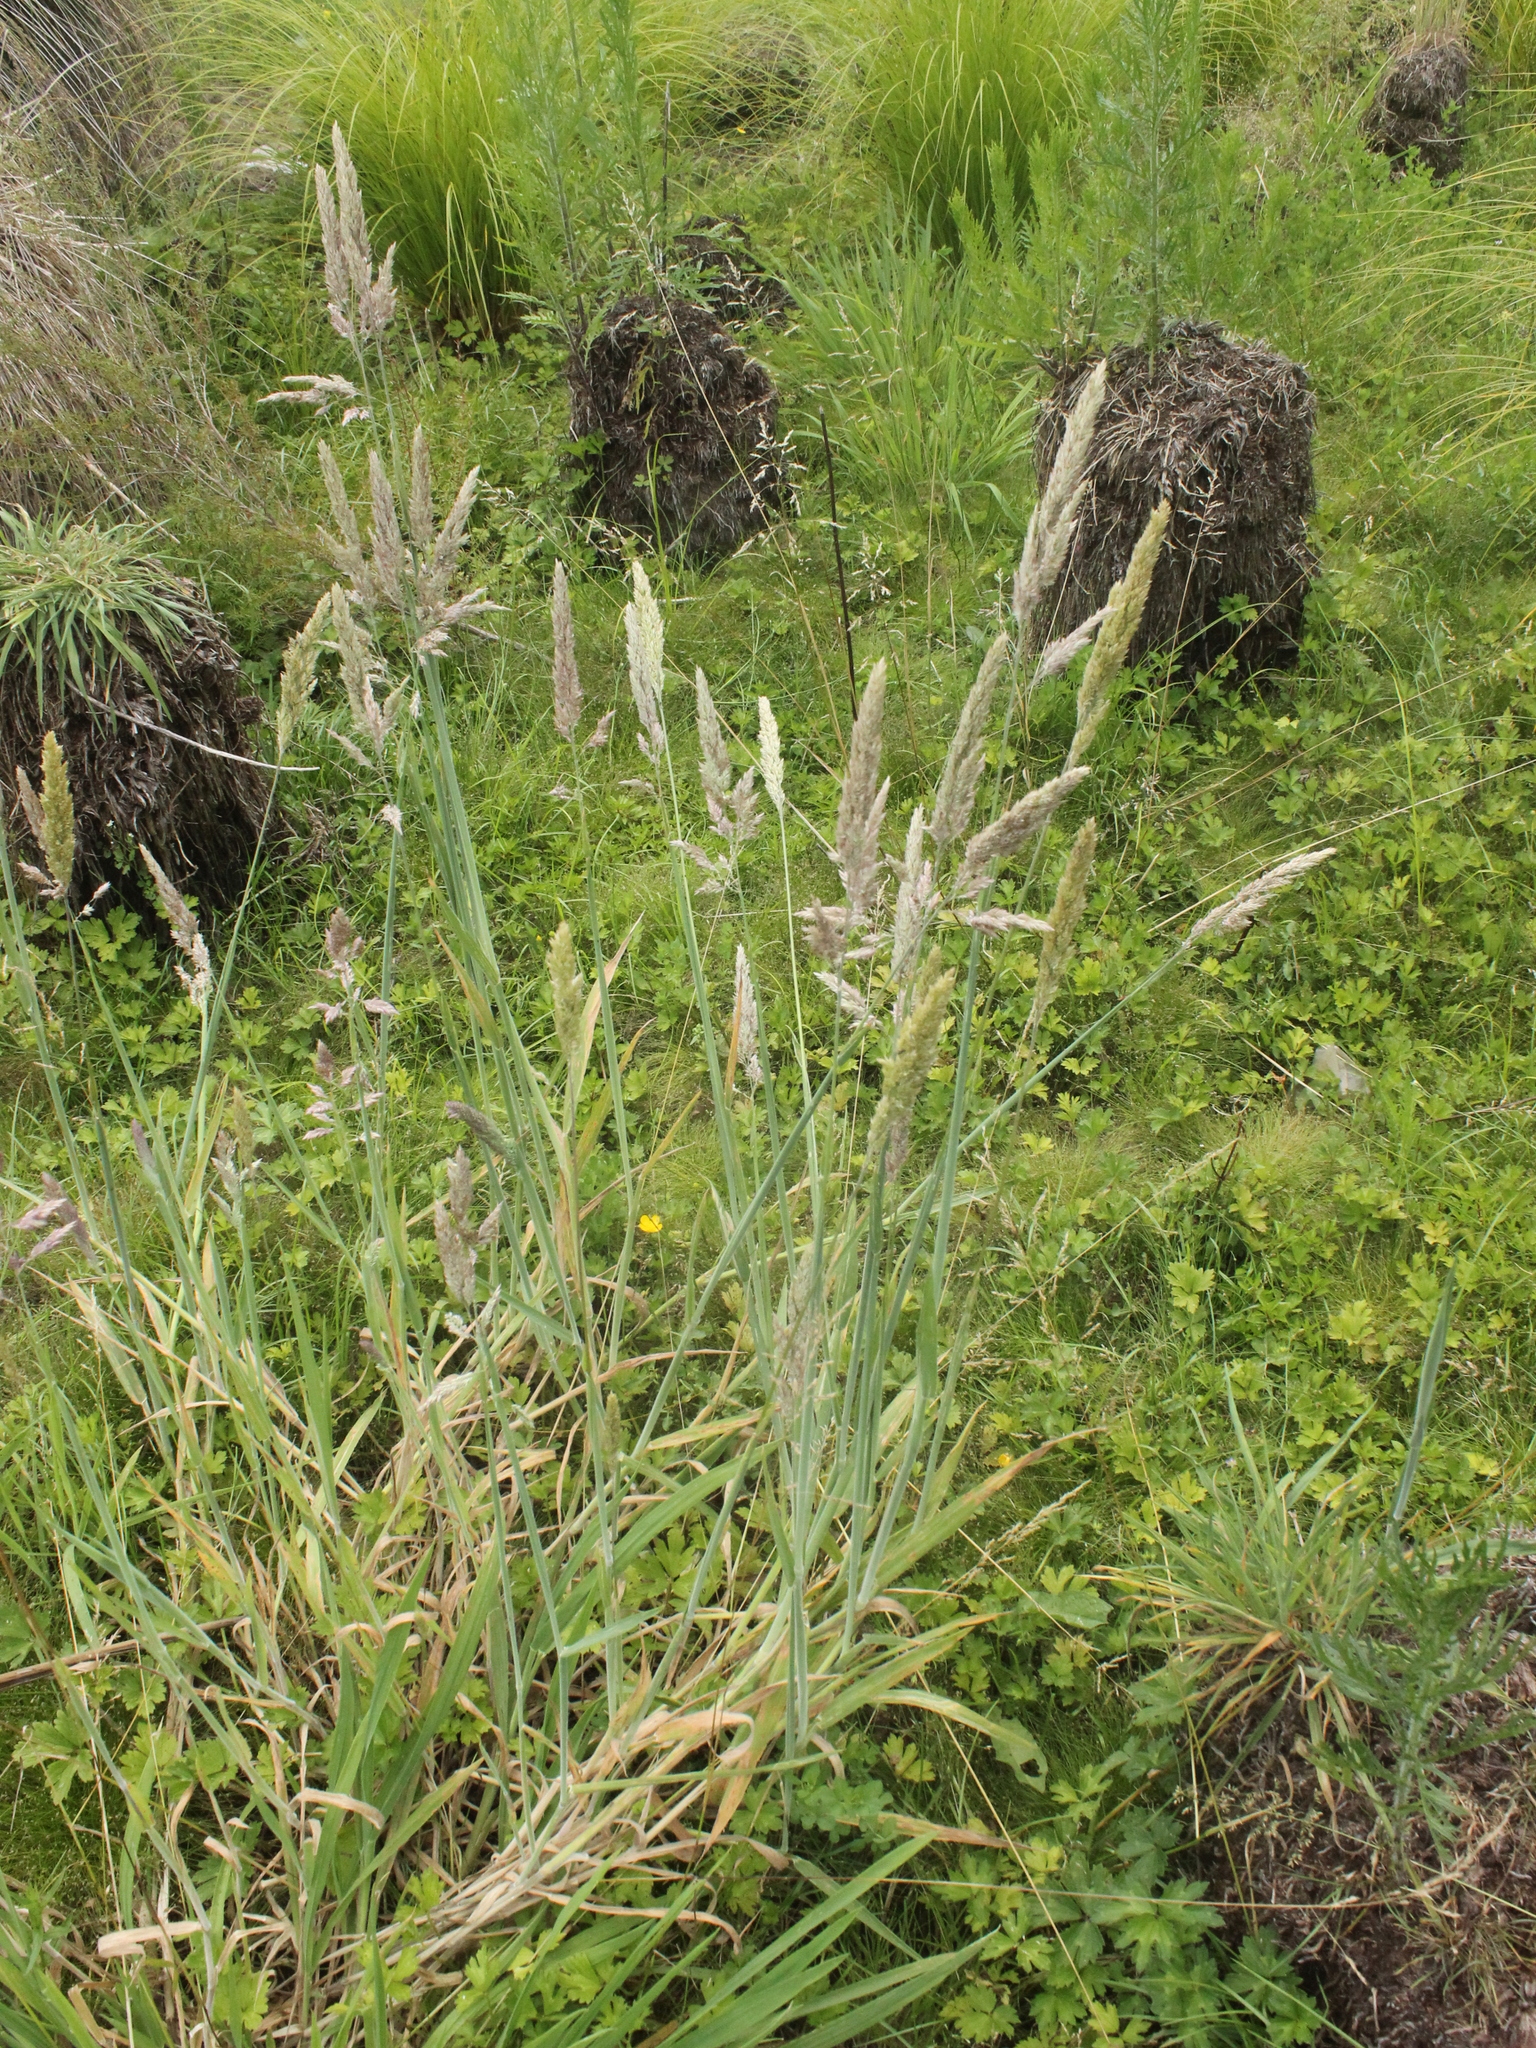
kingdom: Plantae
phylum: Tracheophyta
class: Liliopsida
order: Poales
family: Poaceae
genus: Holcus
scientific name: Holcus lanatus
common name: Yorkshire-fog
